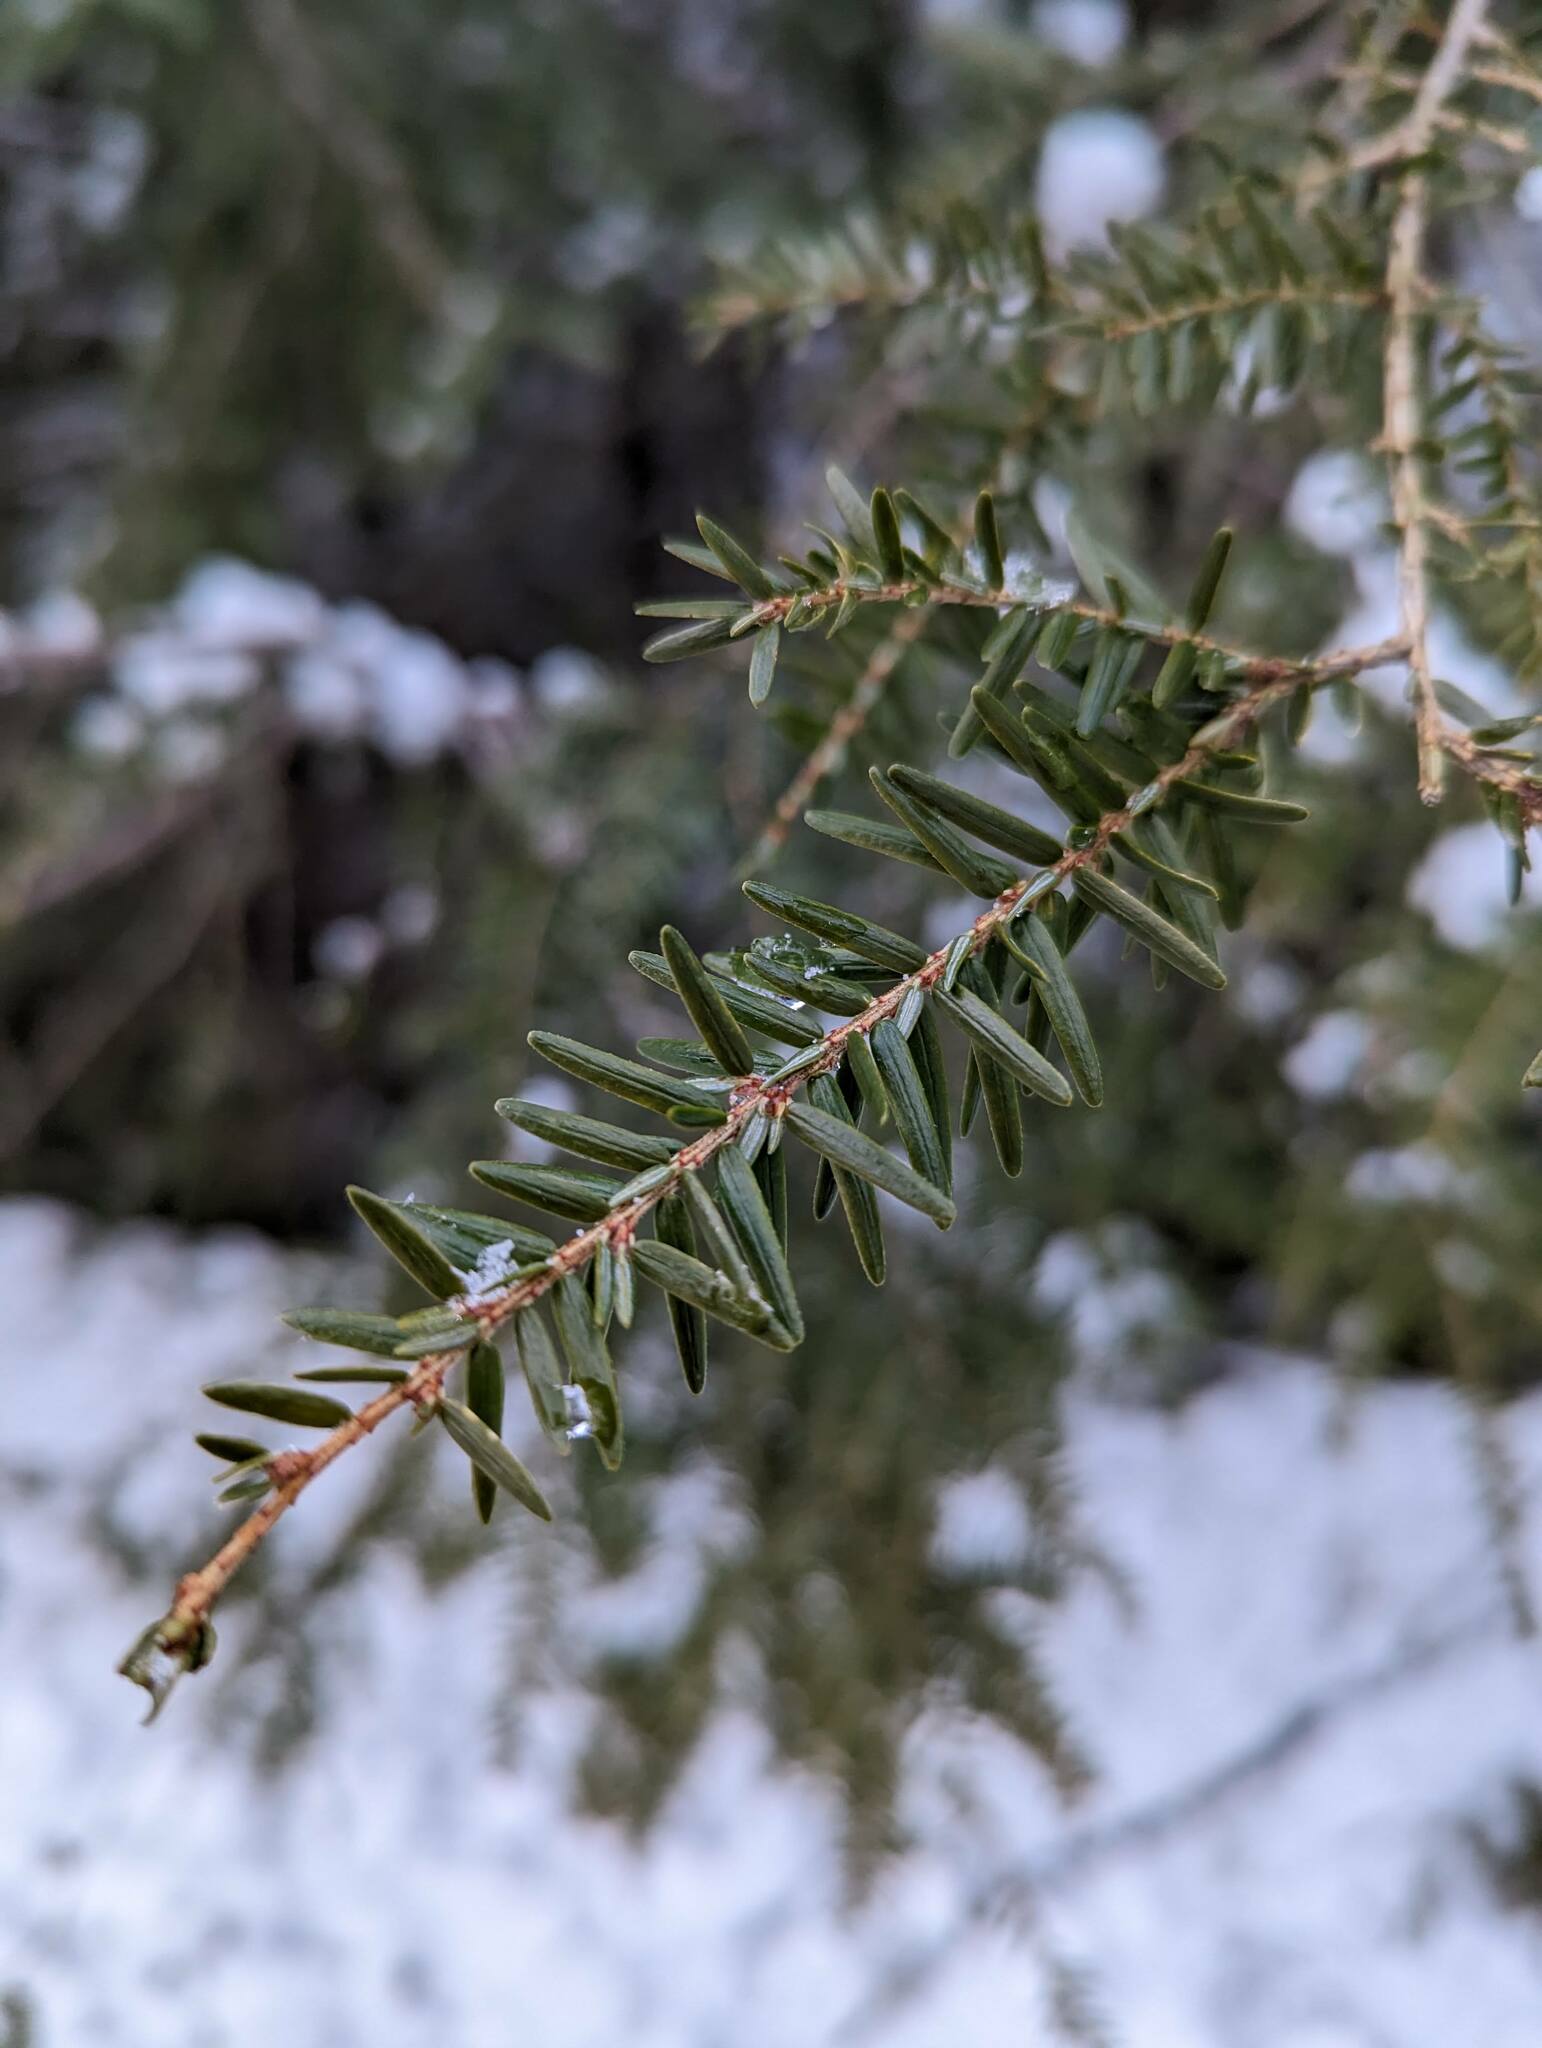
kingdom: Plantae
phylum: Tracheophyta
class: Pinopsida
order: Pinales
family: Pinaceae
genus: Tsuga
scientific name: Tsuga canadensis
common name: Eastern hemlock
